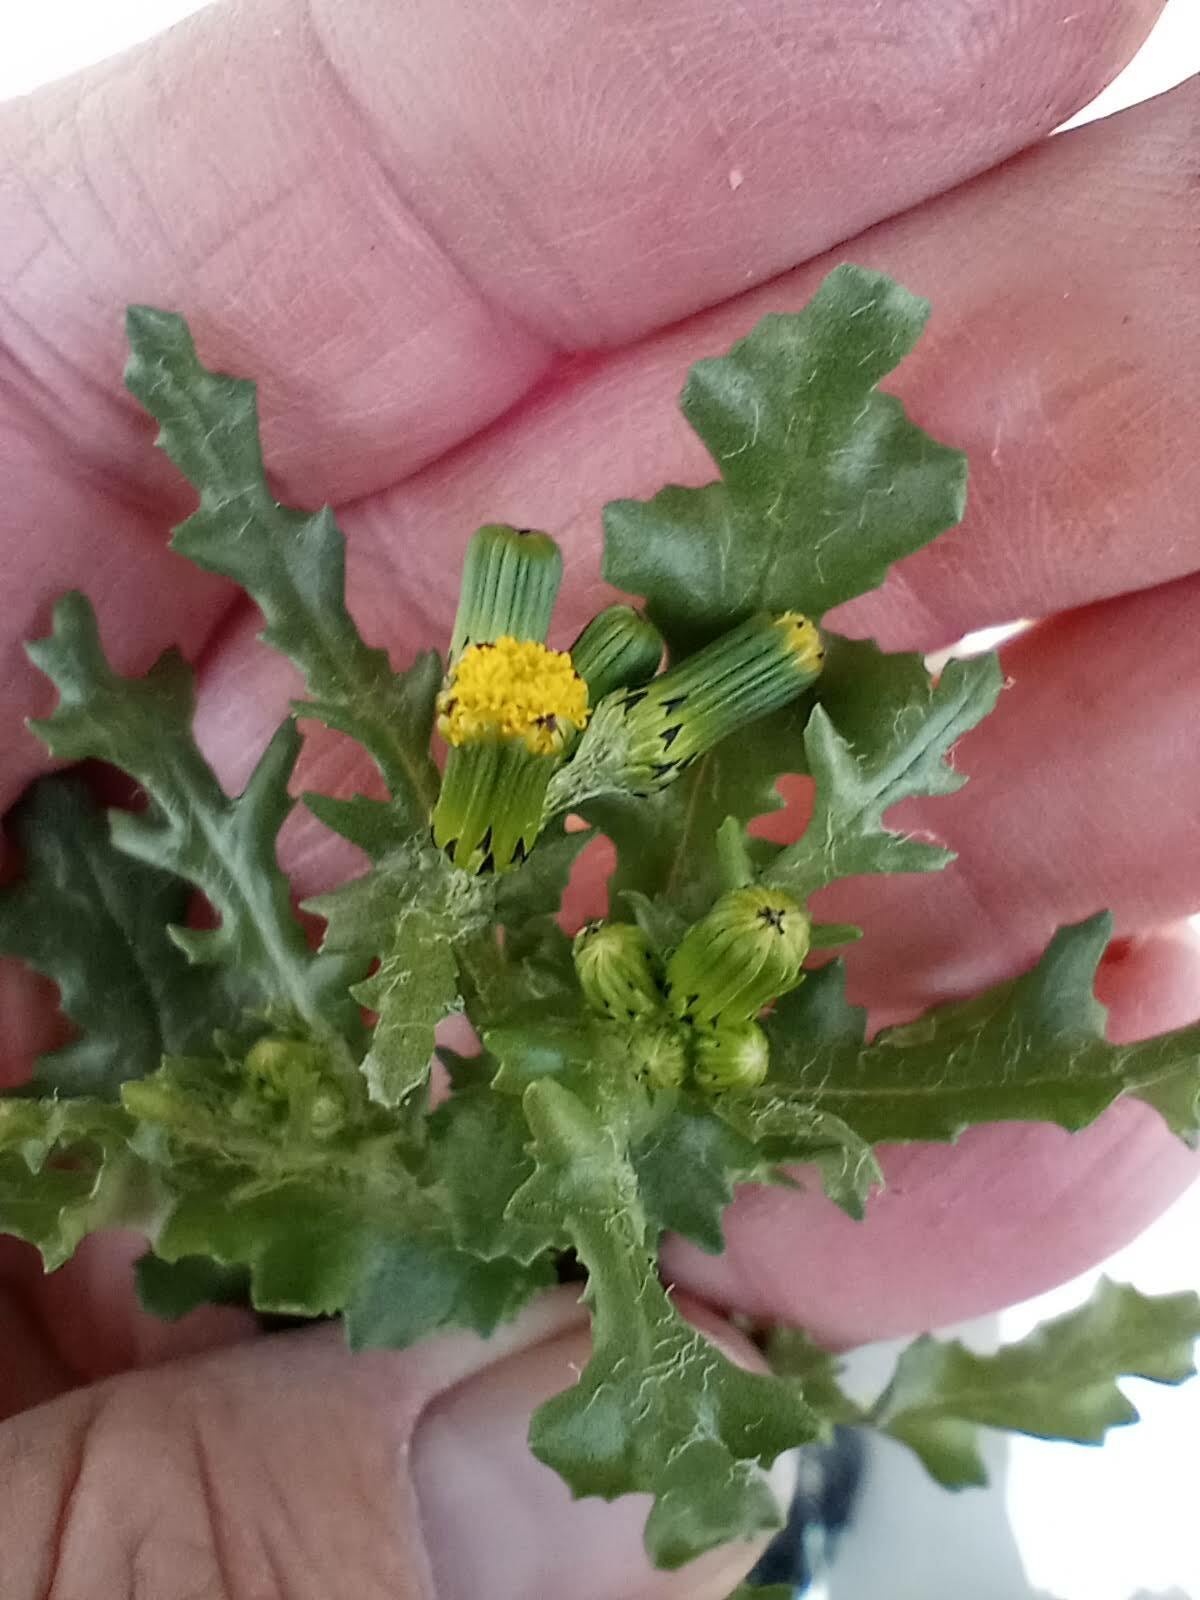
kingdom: Plantae
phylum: Tracheophyta
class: Magnoliopsida
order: Asterales
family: Asteraceae
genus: Senecio
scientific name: Senecio vulgaris
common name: Old-man-in-the-spring
